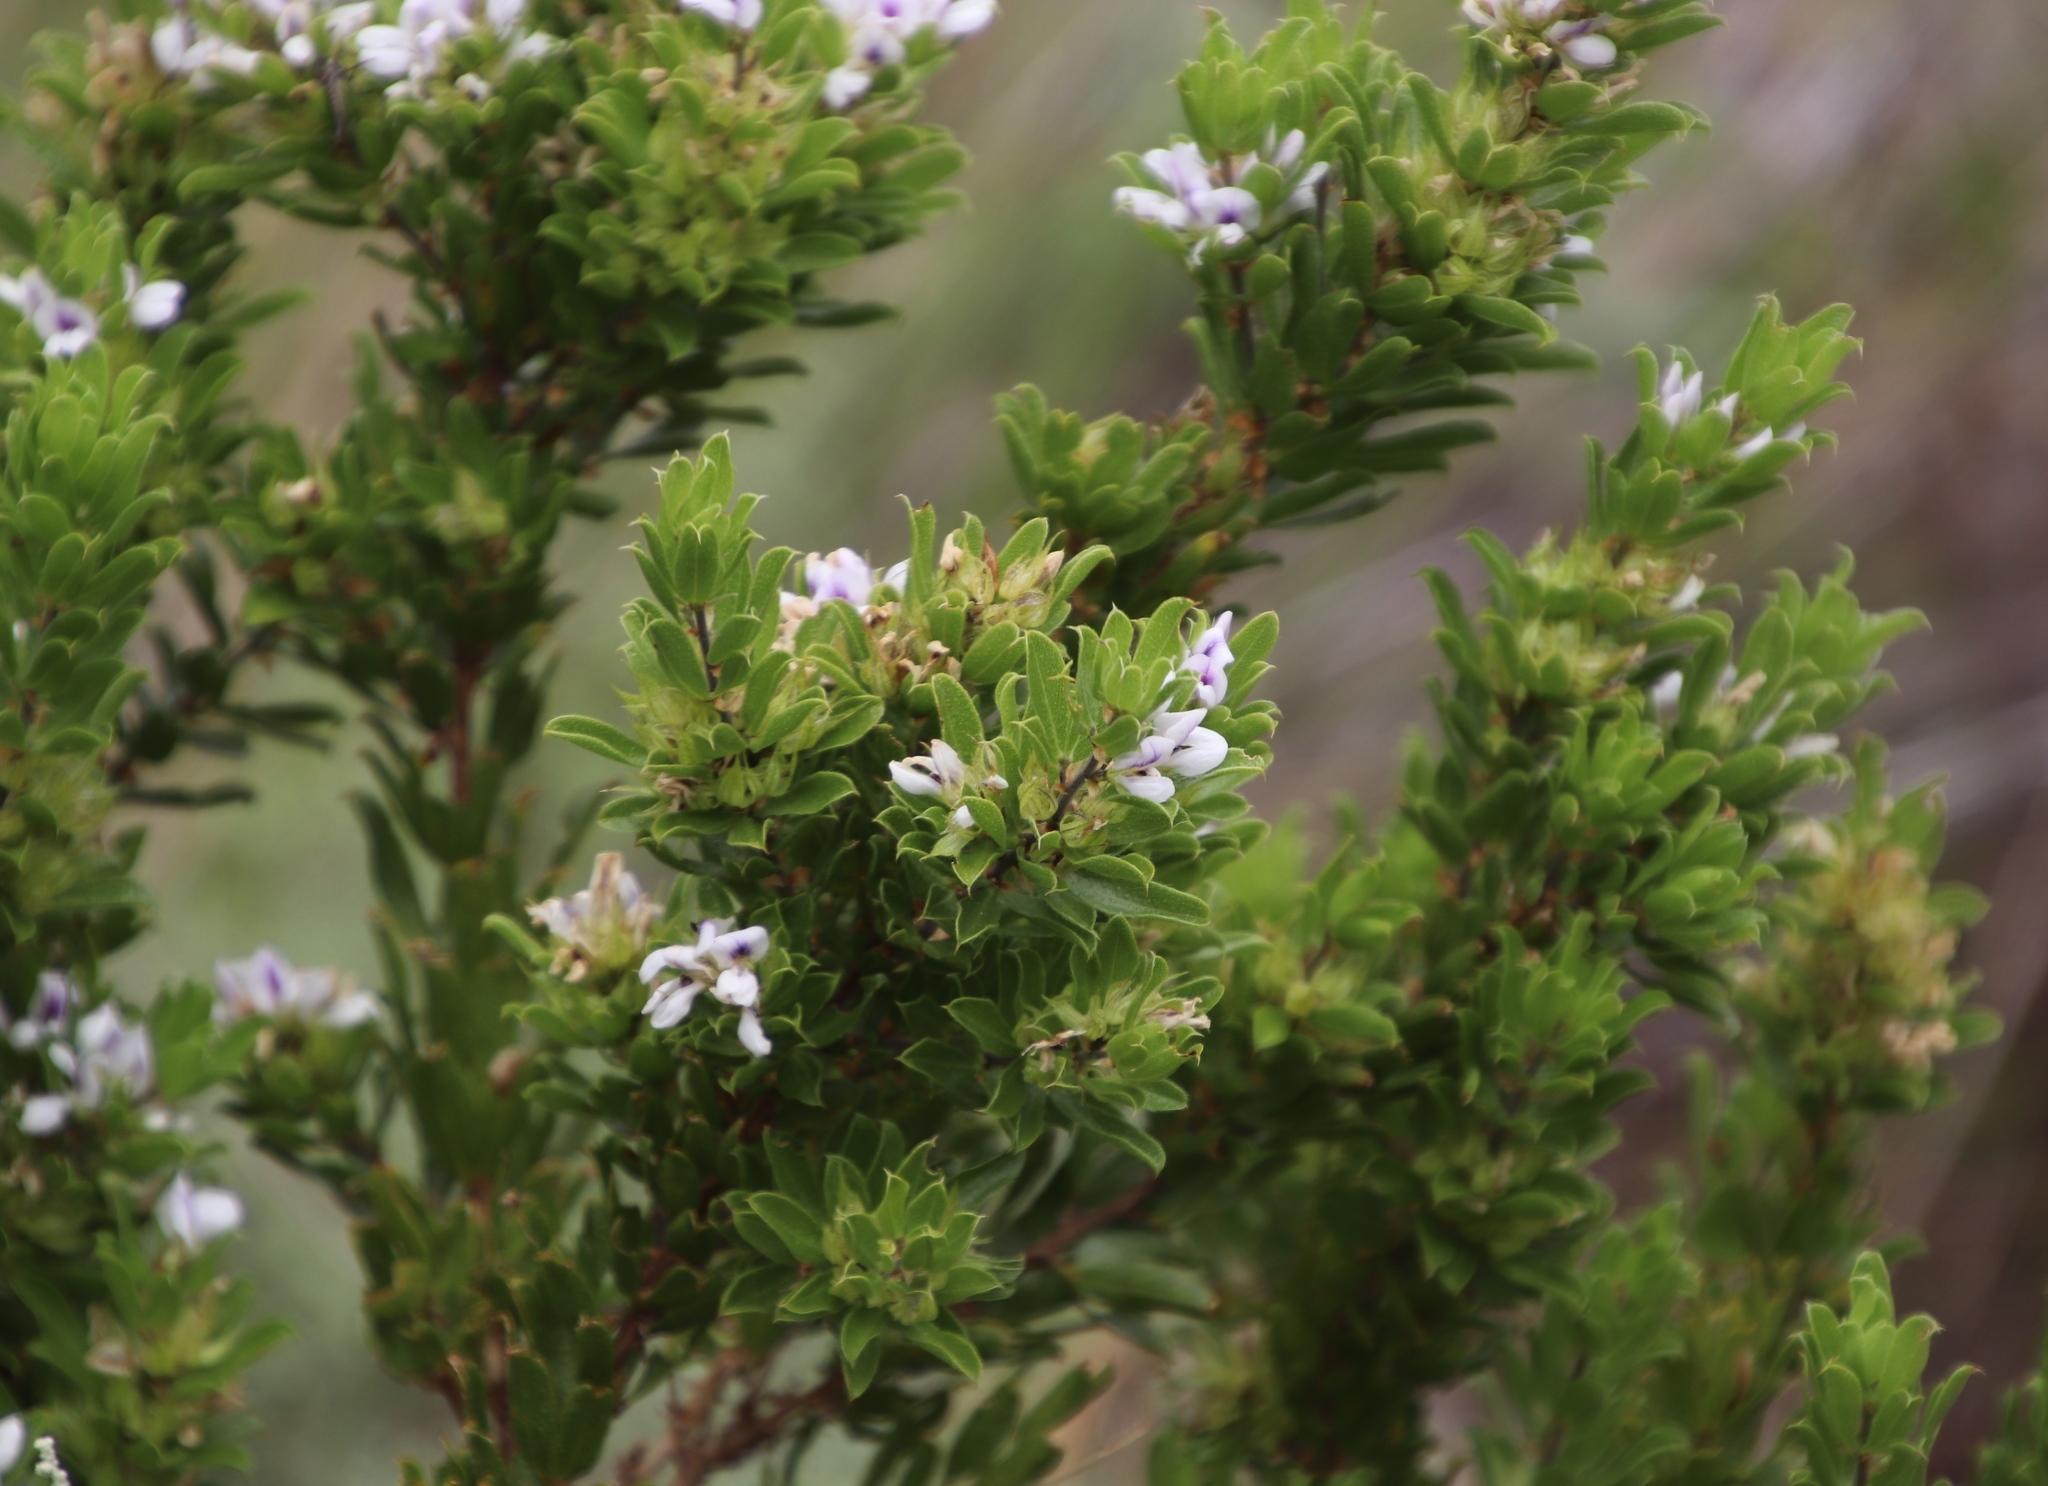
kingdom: Plantae
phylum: Tracheophyta
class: Magnoliopsida
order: Fabales
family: Fabaceae
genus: Psoralea
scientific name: Psoralea mundiana
